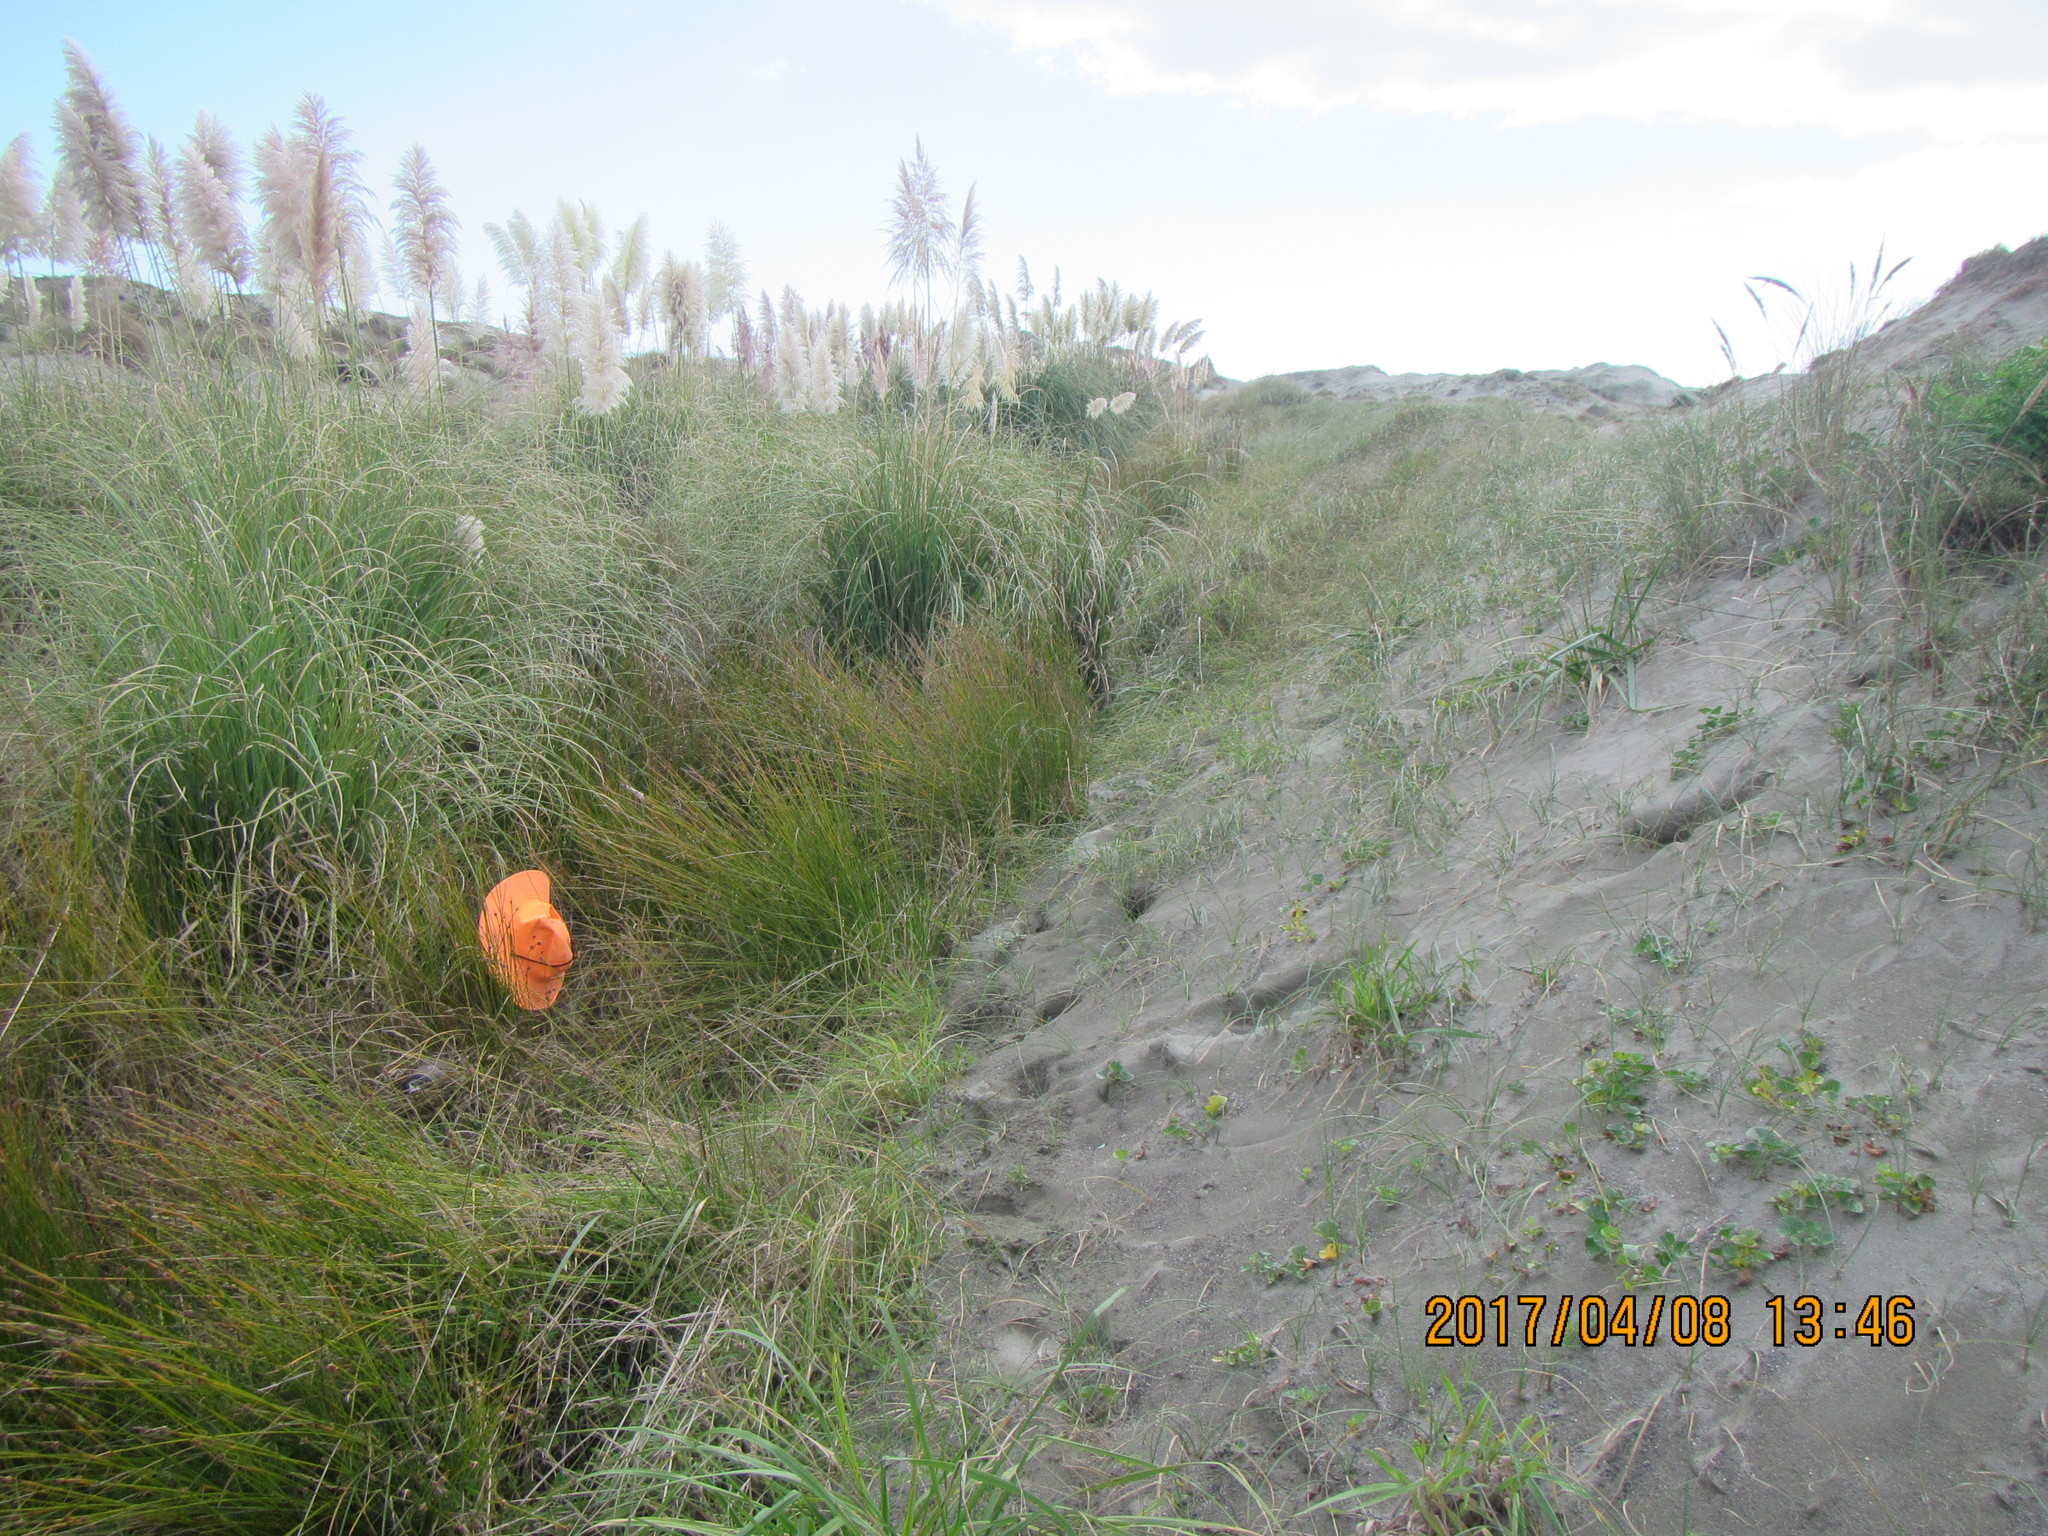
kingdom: Animalia
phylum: Arthropoda
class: Arachnida
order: Araneae
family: Pisauridae
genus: Dolomedes
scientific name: Dolomedes minor
